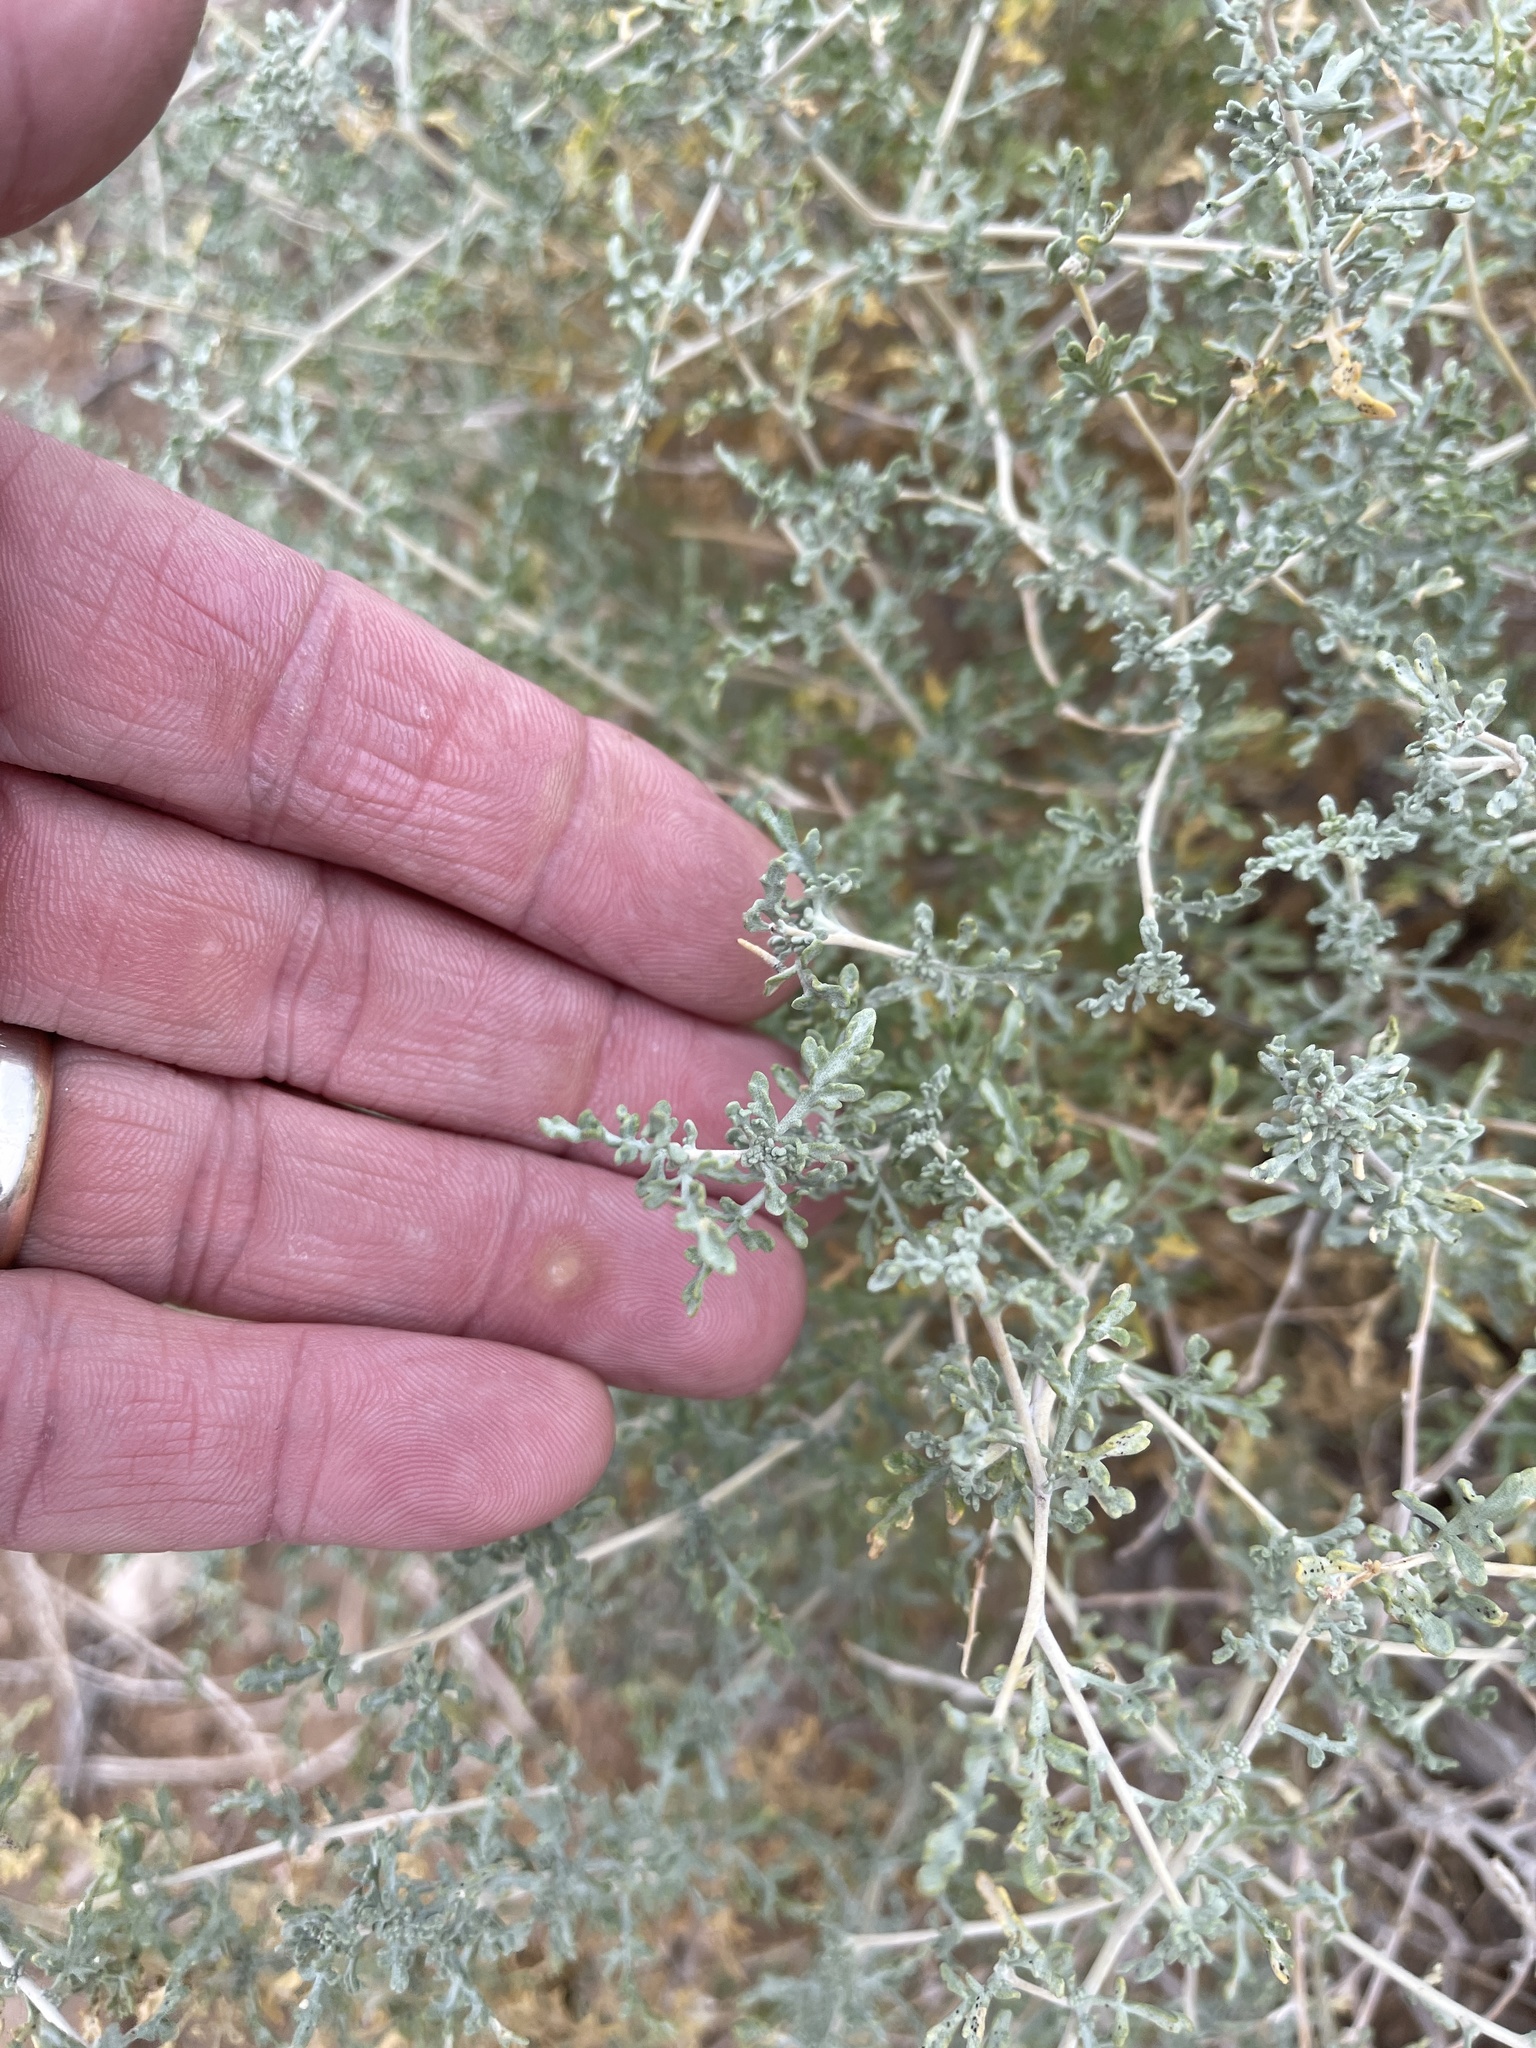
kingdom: Plantae
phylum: Tracheophyta
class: Magnoliopsida
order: Asterales
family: Asteraceae
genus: Ambrosia
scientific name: Ambrosia dumosa
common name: Bur-sage
